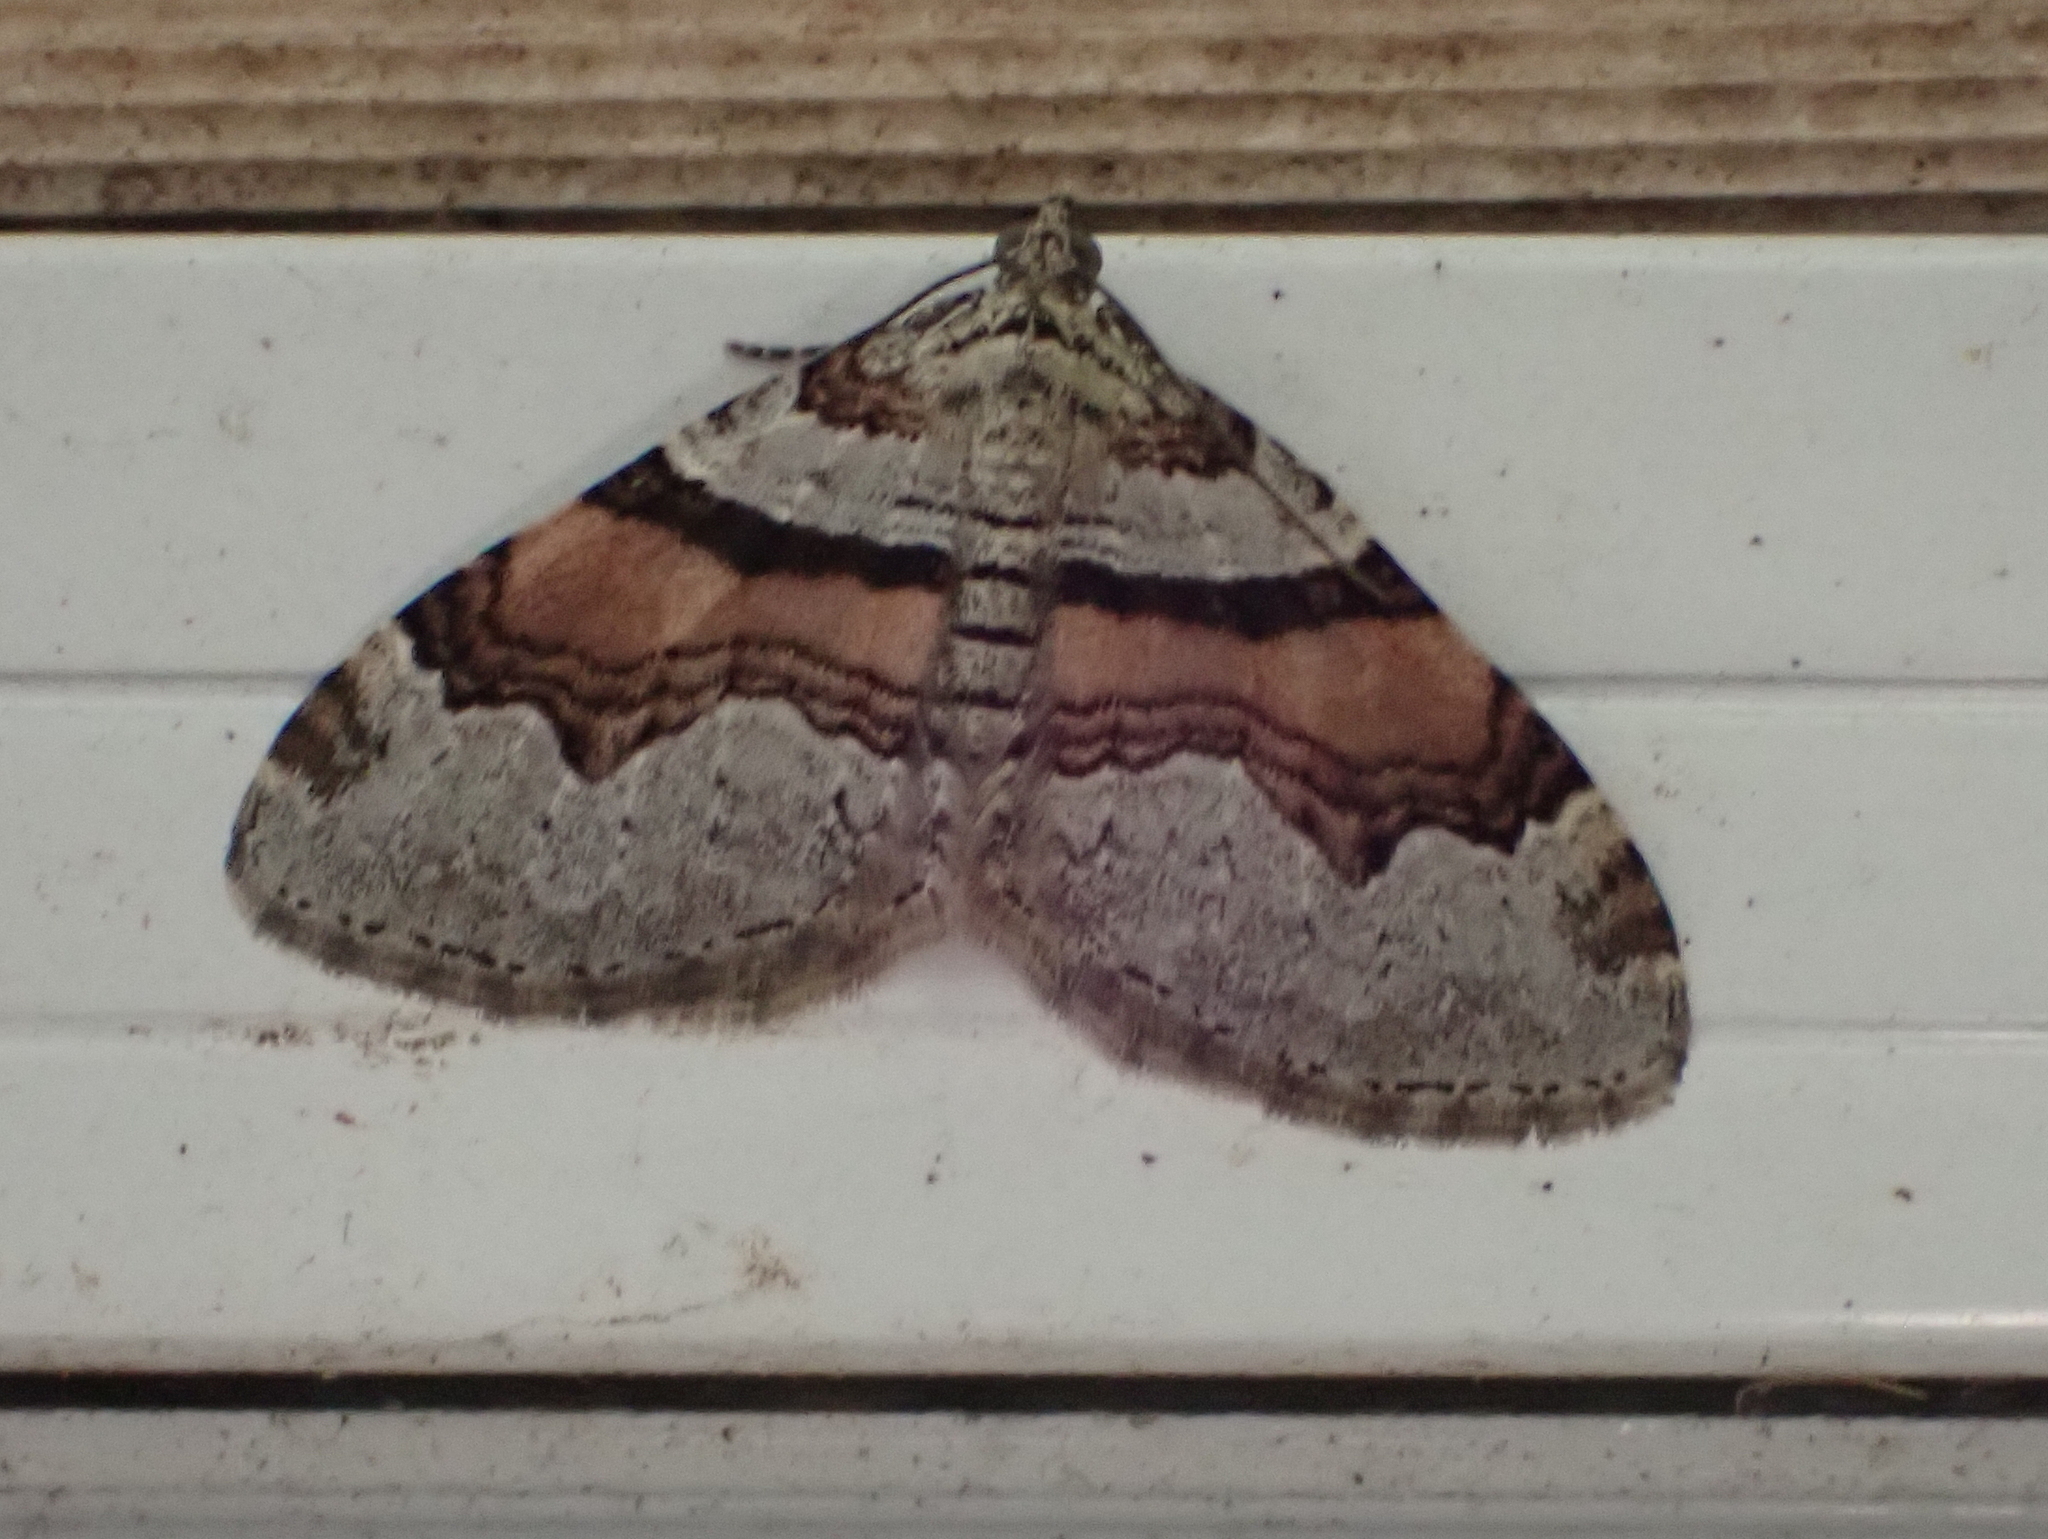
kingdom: Animalia
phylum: Arthropoda
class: Insecta
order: Lepidoptera
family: Geometridae
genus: Xanthorhoe
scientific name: Xanthorhoe labradorensis
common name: Labrador carpet
